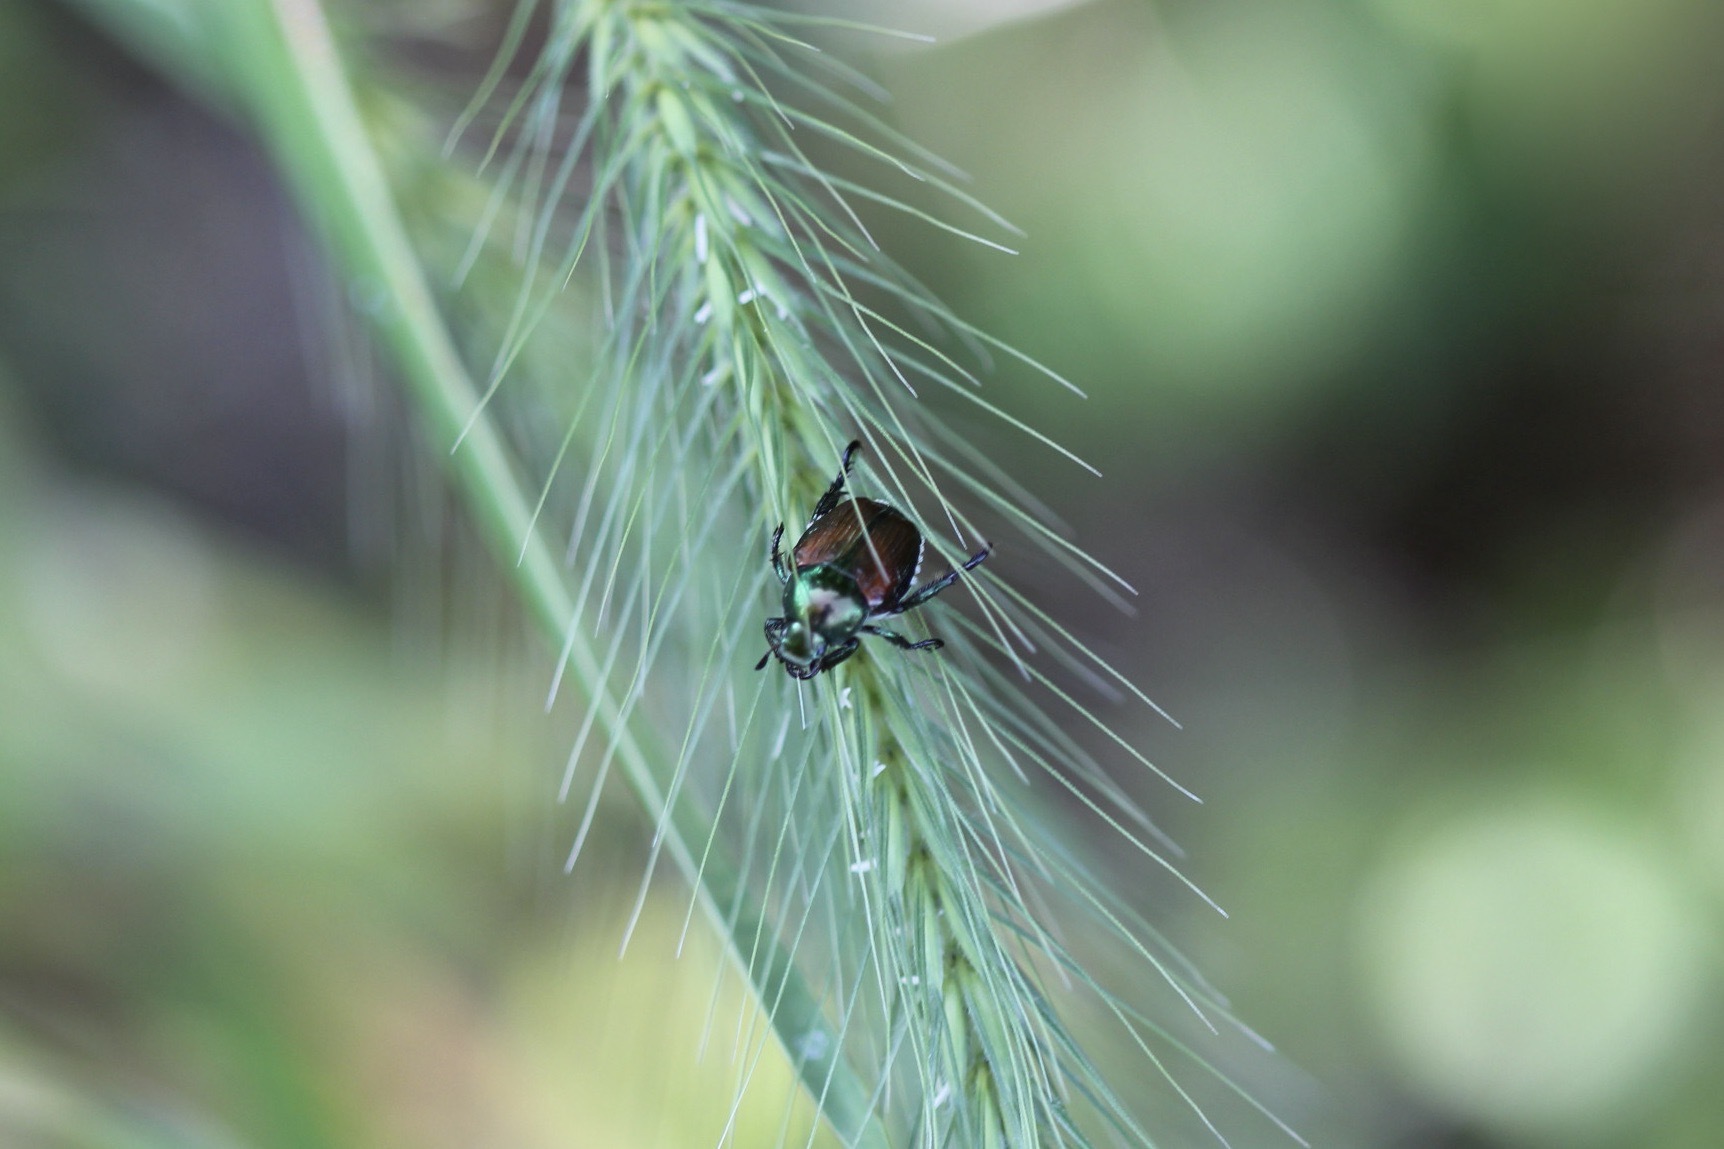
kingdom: Animalia
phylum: Arthropoda
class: Insecta
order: Coleoptera
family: Scarabaeidae
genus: Popillia
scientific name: Popillia japonica
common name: Japanese beetle
